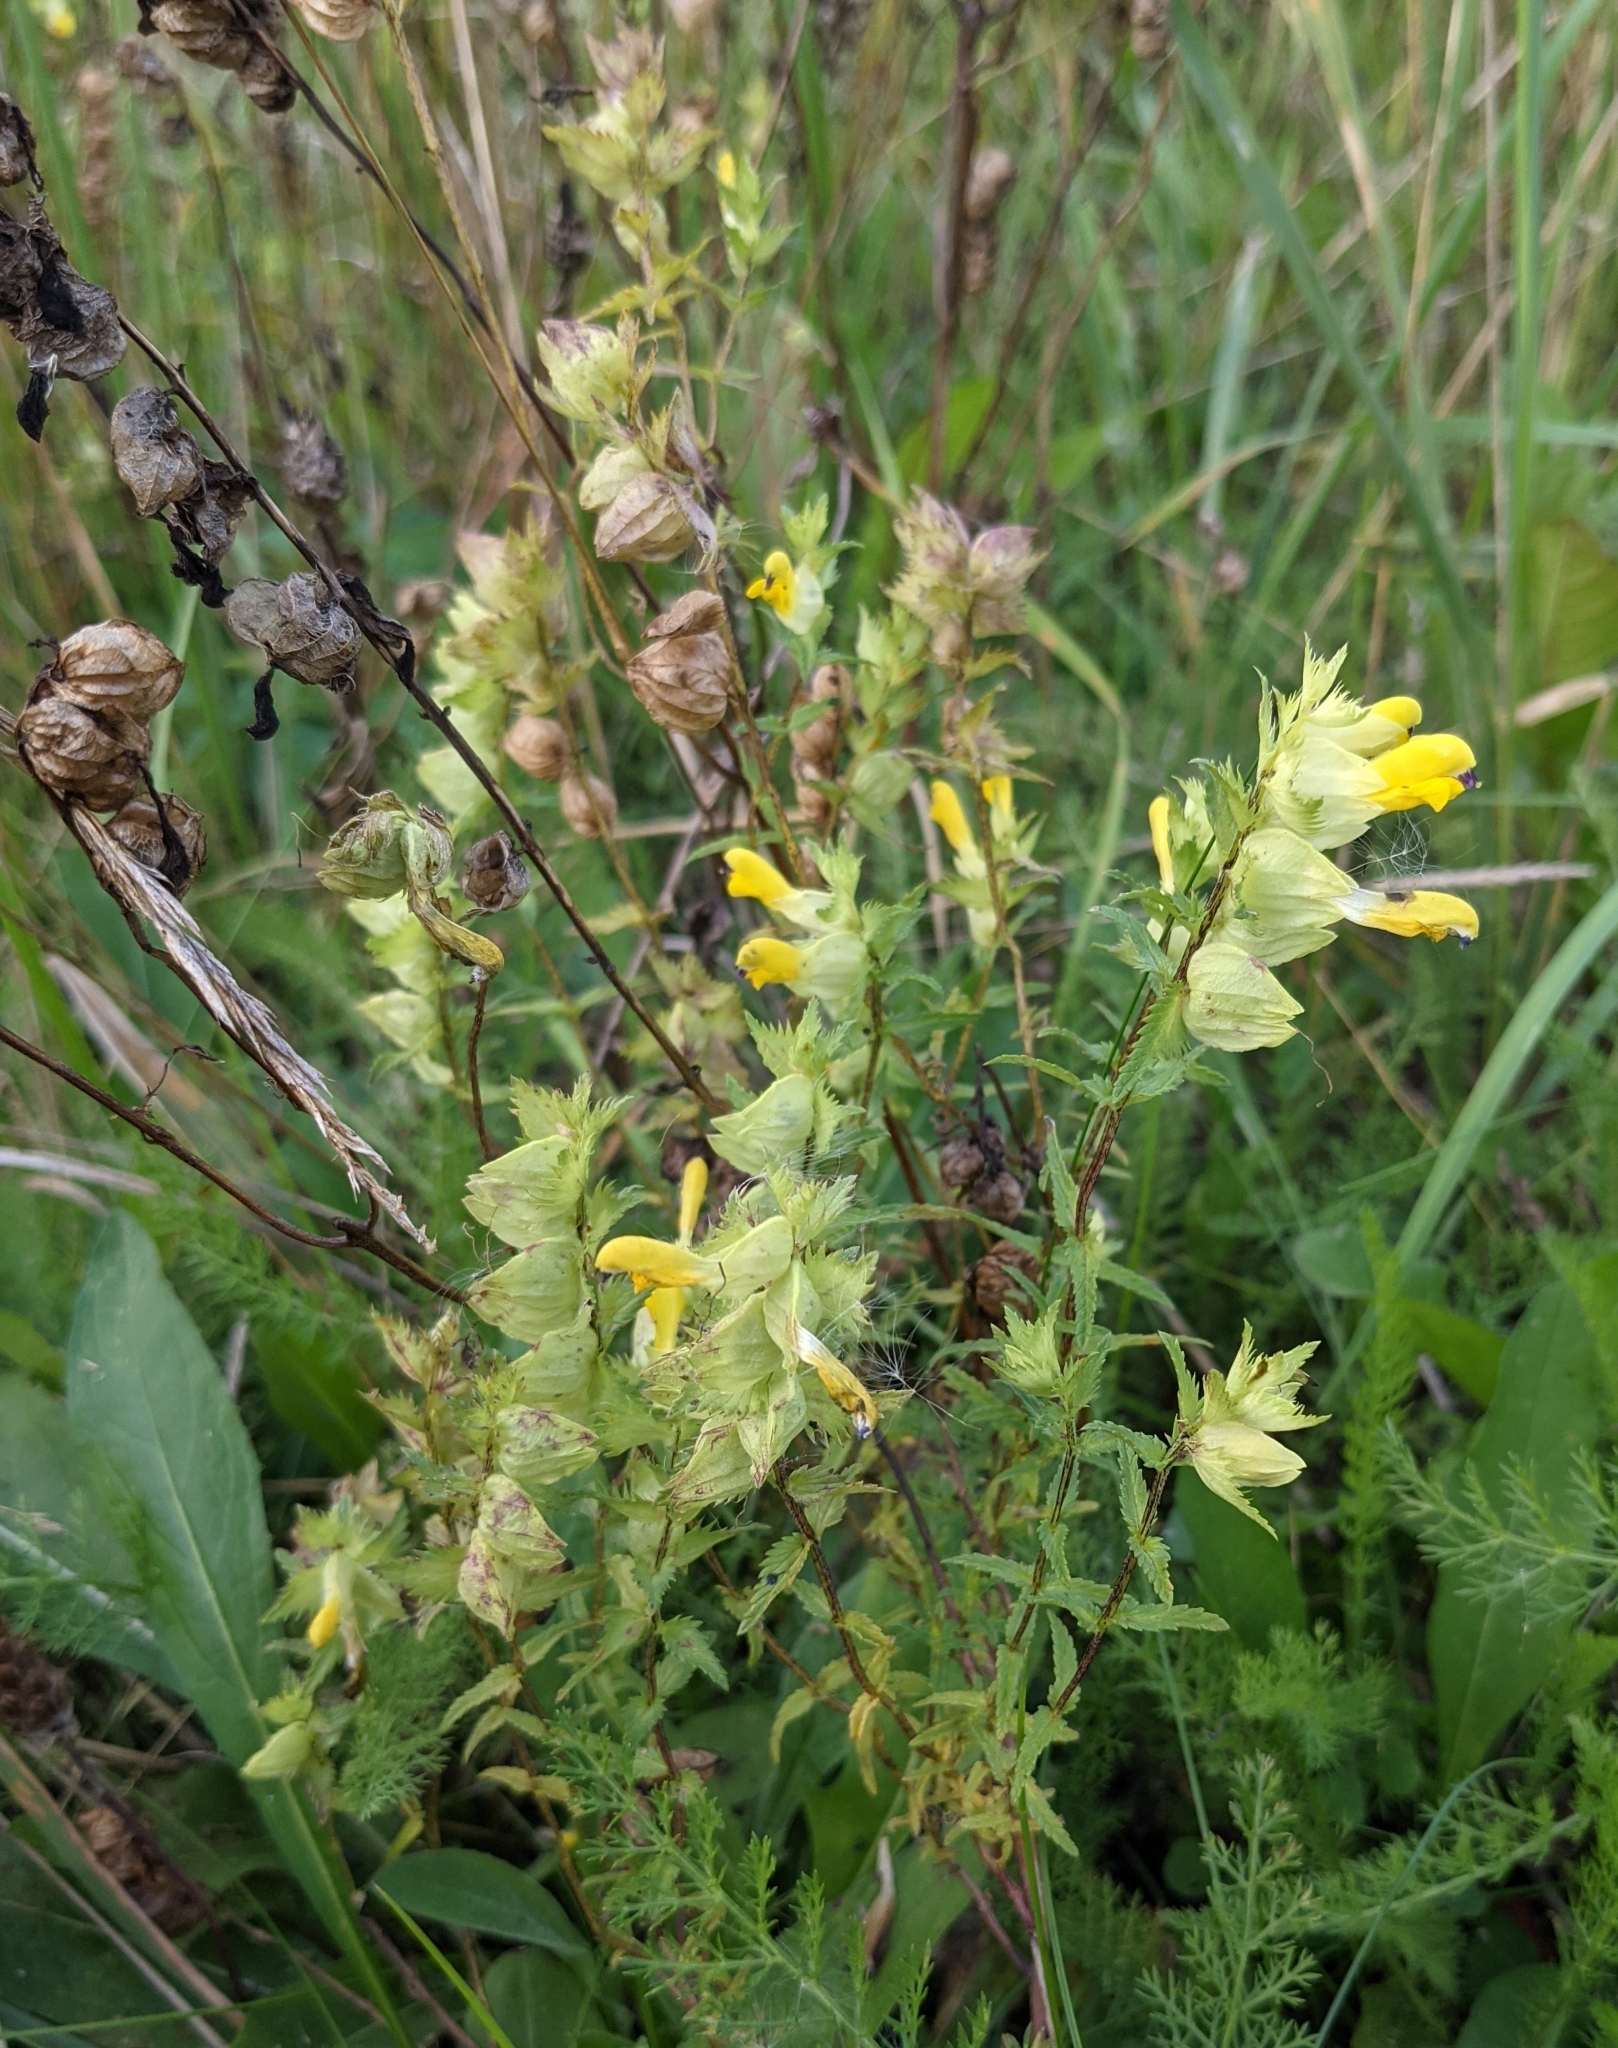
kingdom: Plantae
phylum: Tracheophyta
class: Magnoliopsida
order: Lamiales
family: Orobanchaceae
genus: Rhinanthus
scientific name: Rhinanthus serotinus
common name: Late-flowering yellow rattle
